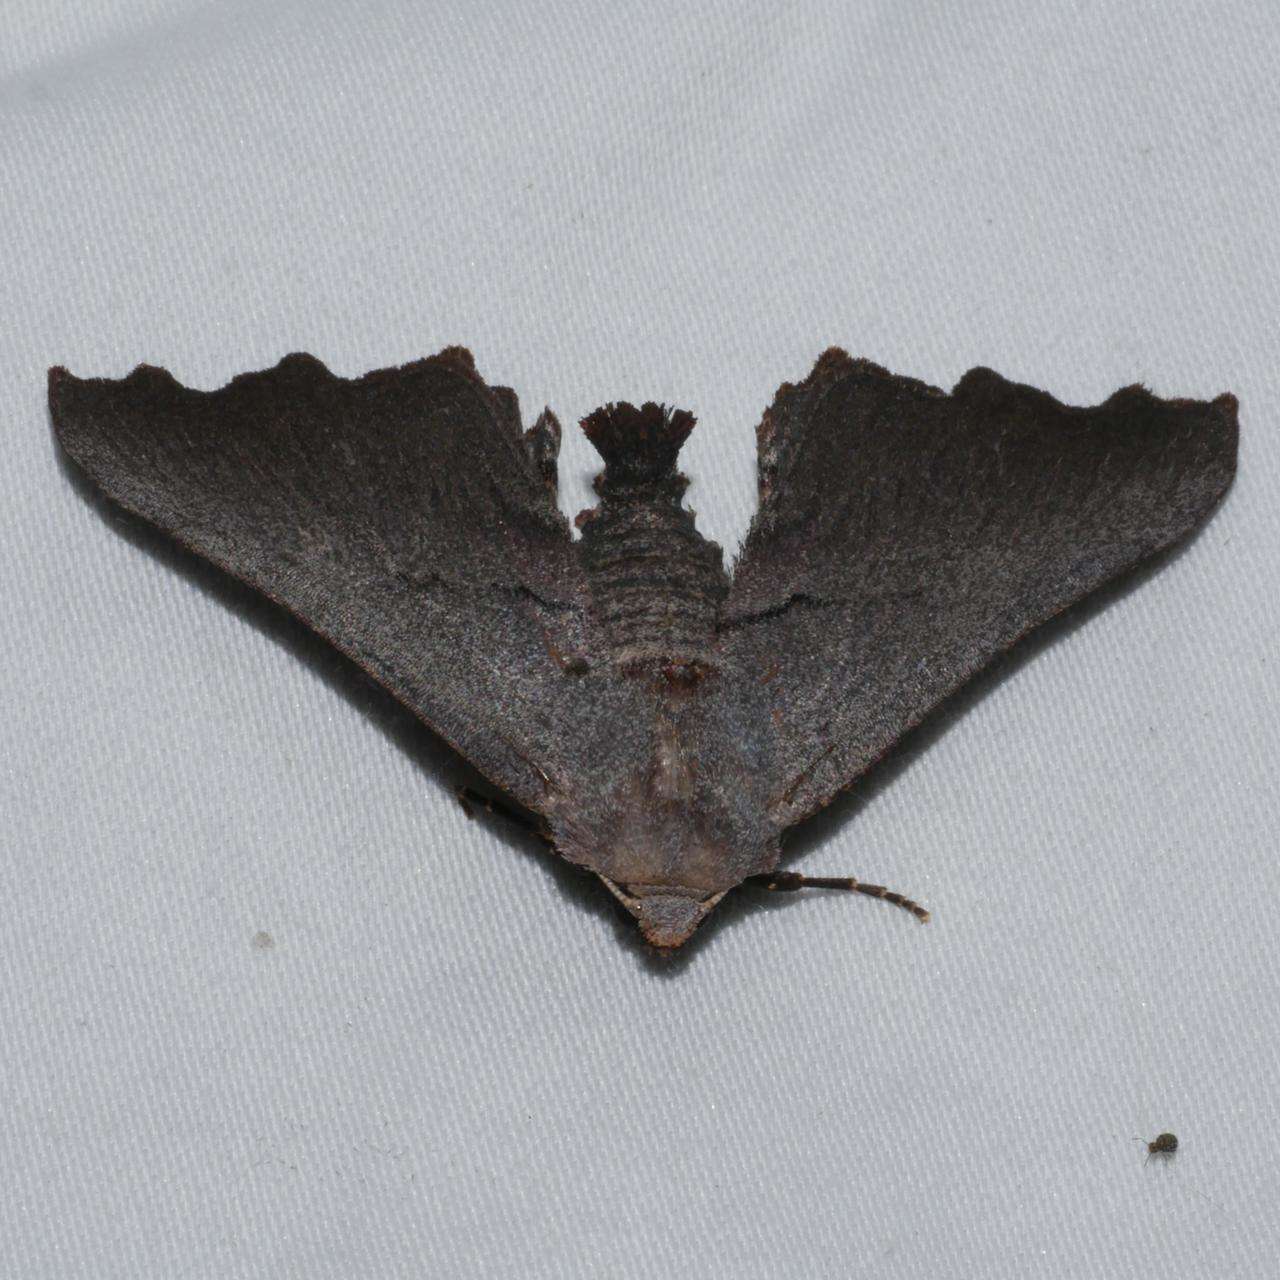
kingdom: Animalia
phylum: Arthropoda
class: Insecta
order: Lepidoptera
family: Geometridae
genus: Amphiclasta
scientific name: Amphiclasta lygaea
